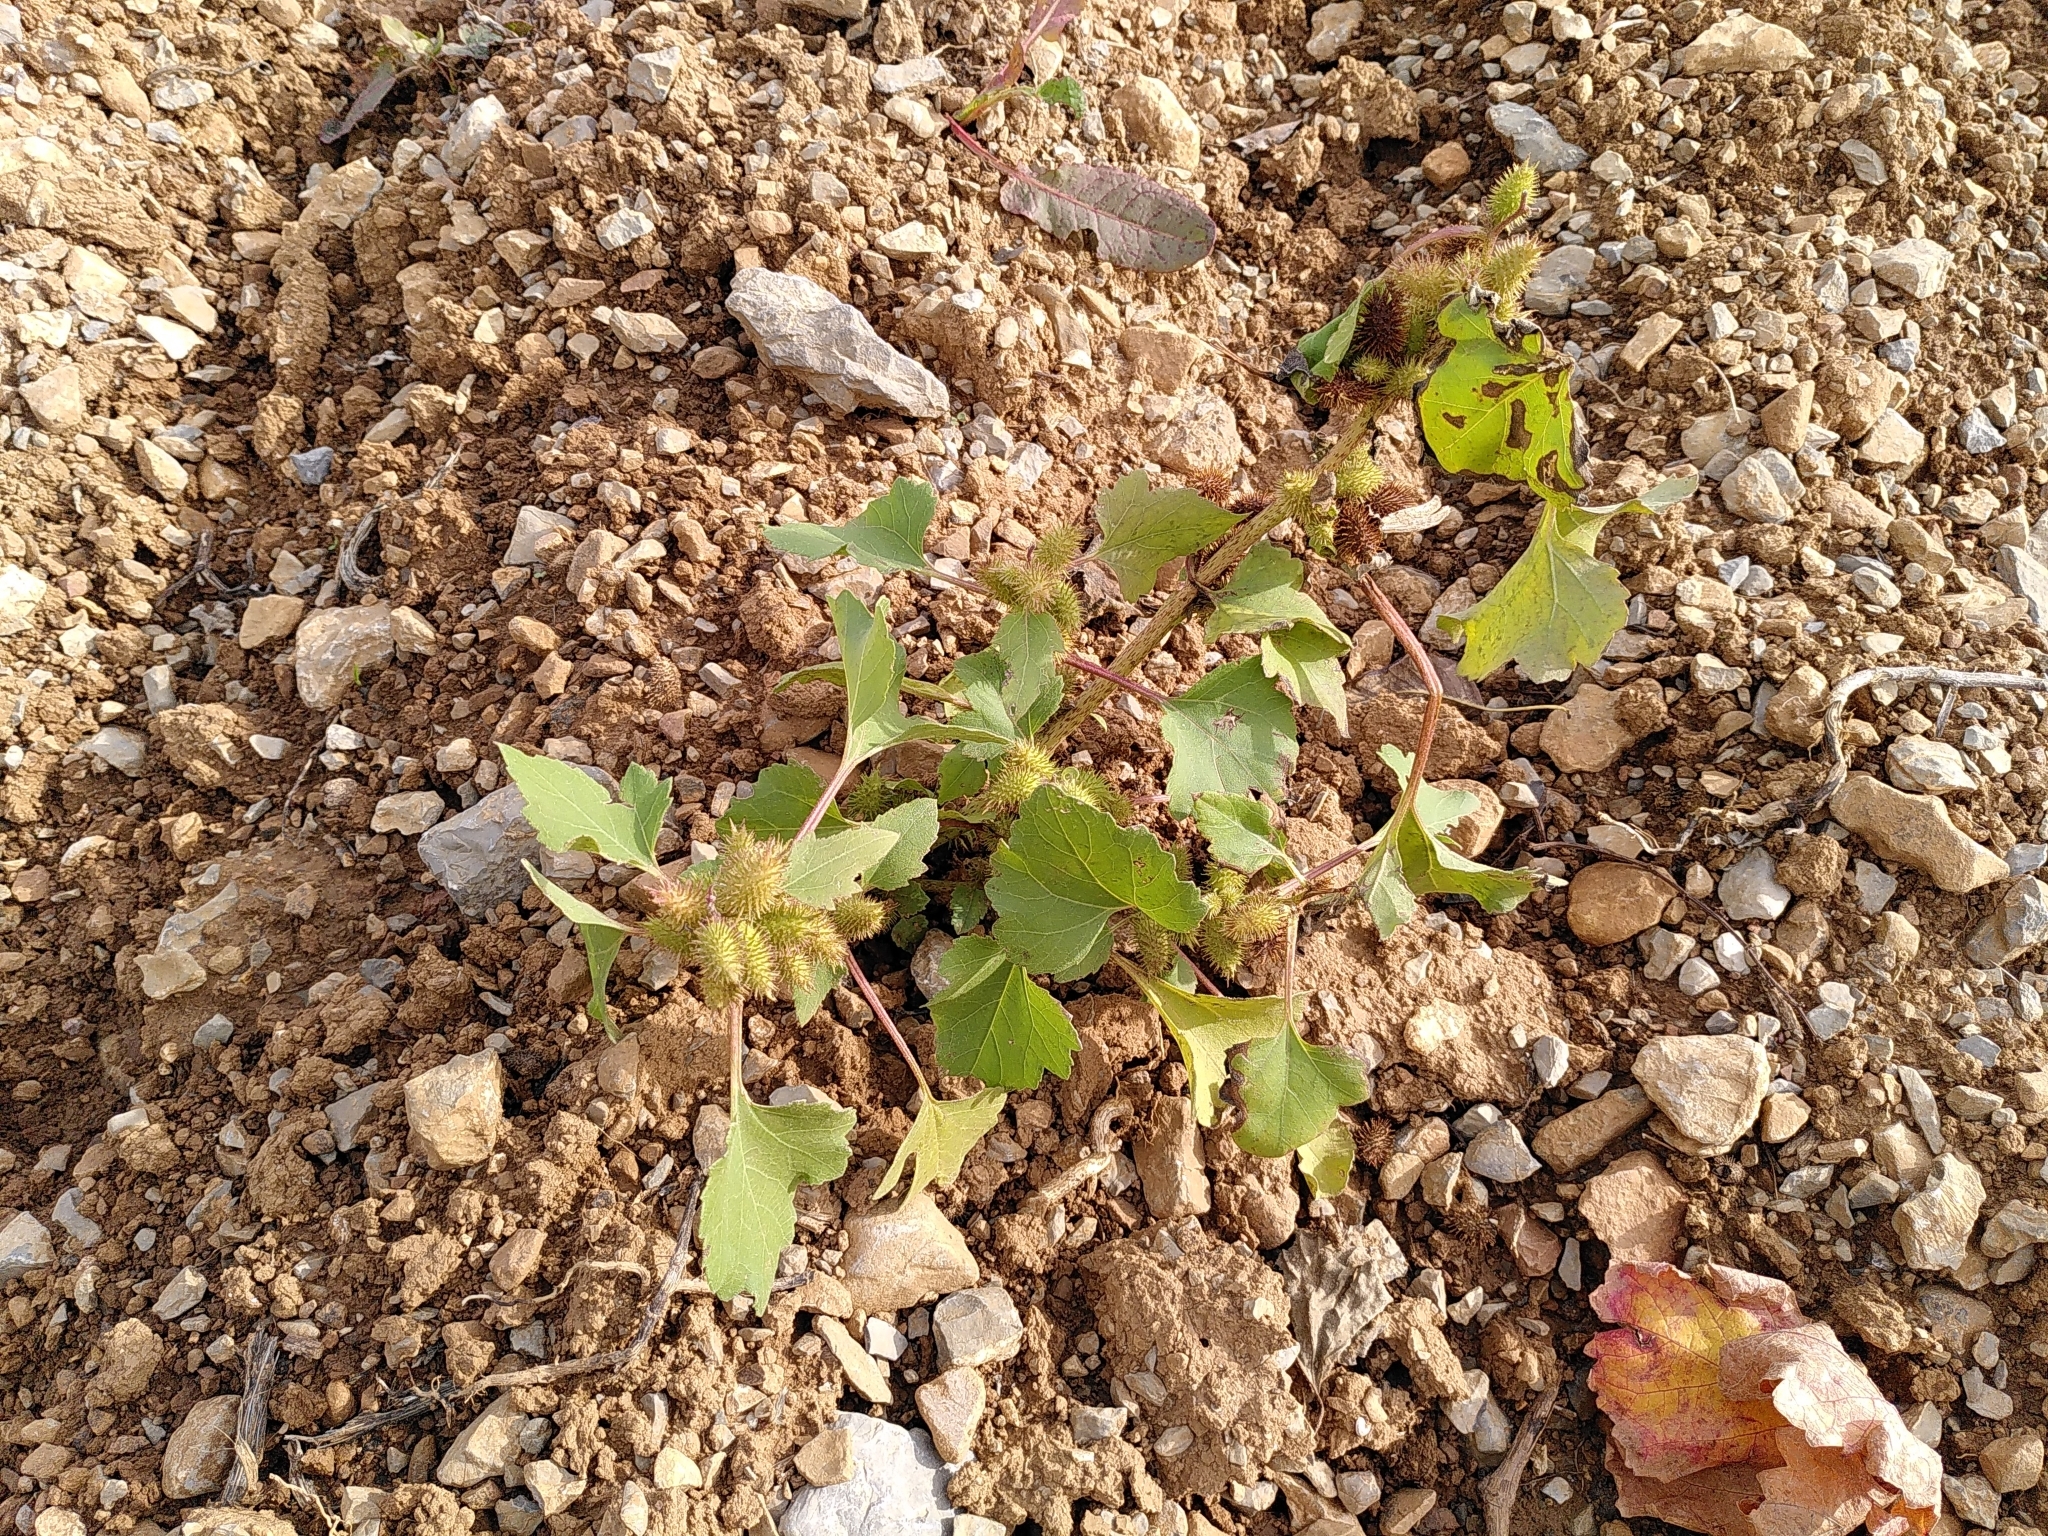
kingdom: Plantae
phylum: Tracheophyta
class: Magnoliopsida
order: Asterales
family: Asteraceae
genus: Xanthium
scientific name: Xanthium strumarium
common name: Rough cocklebur
